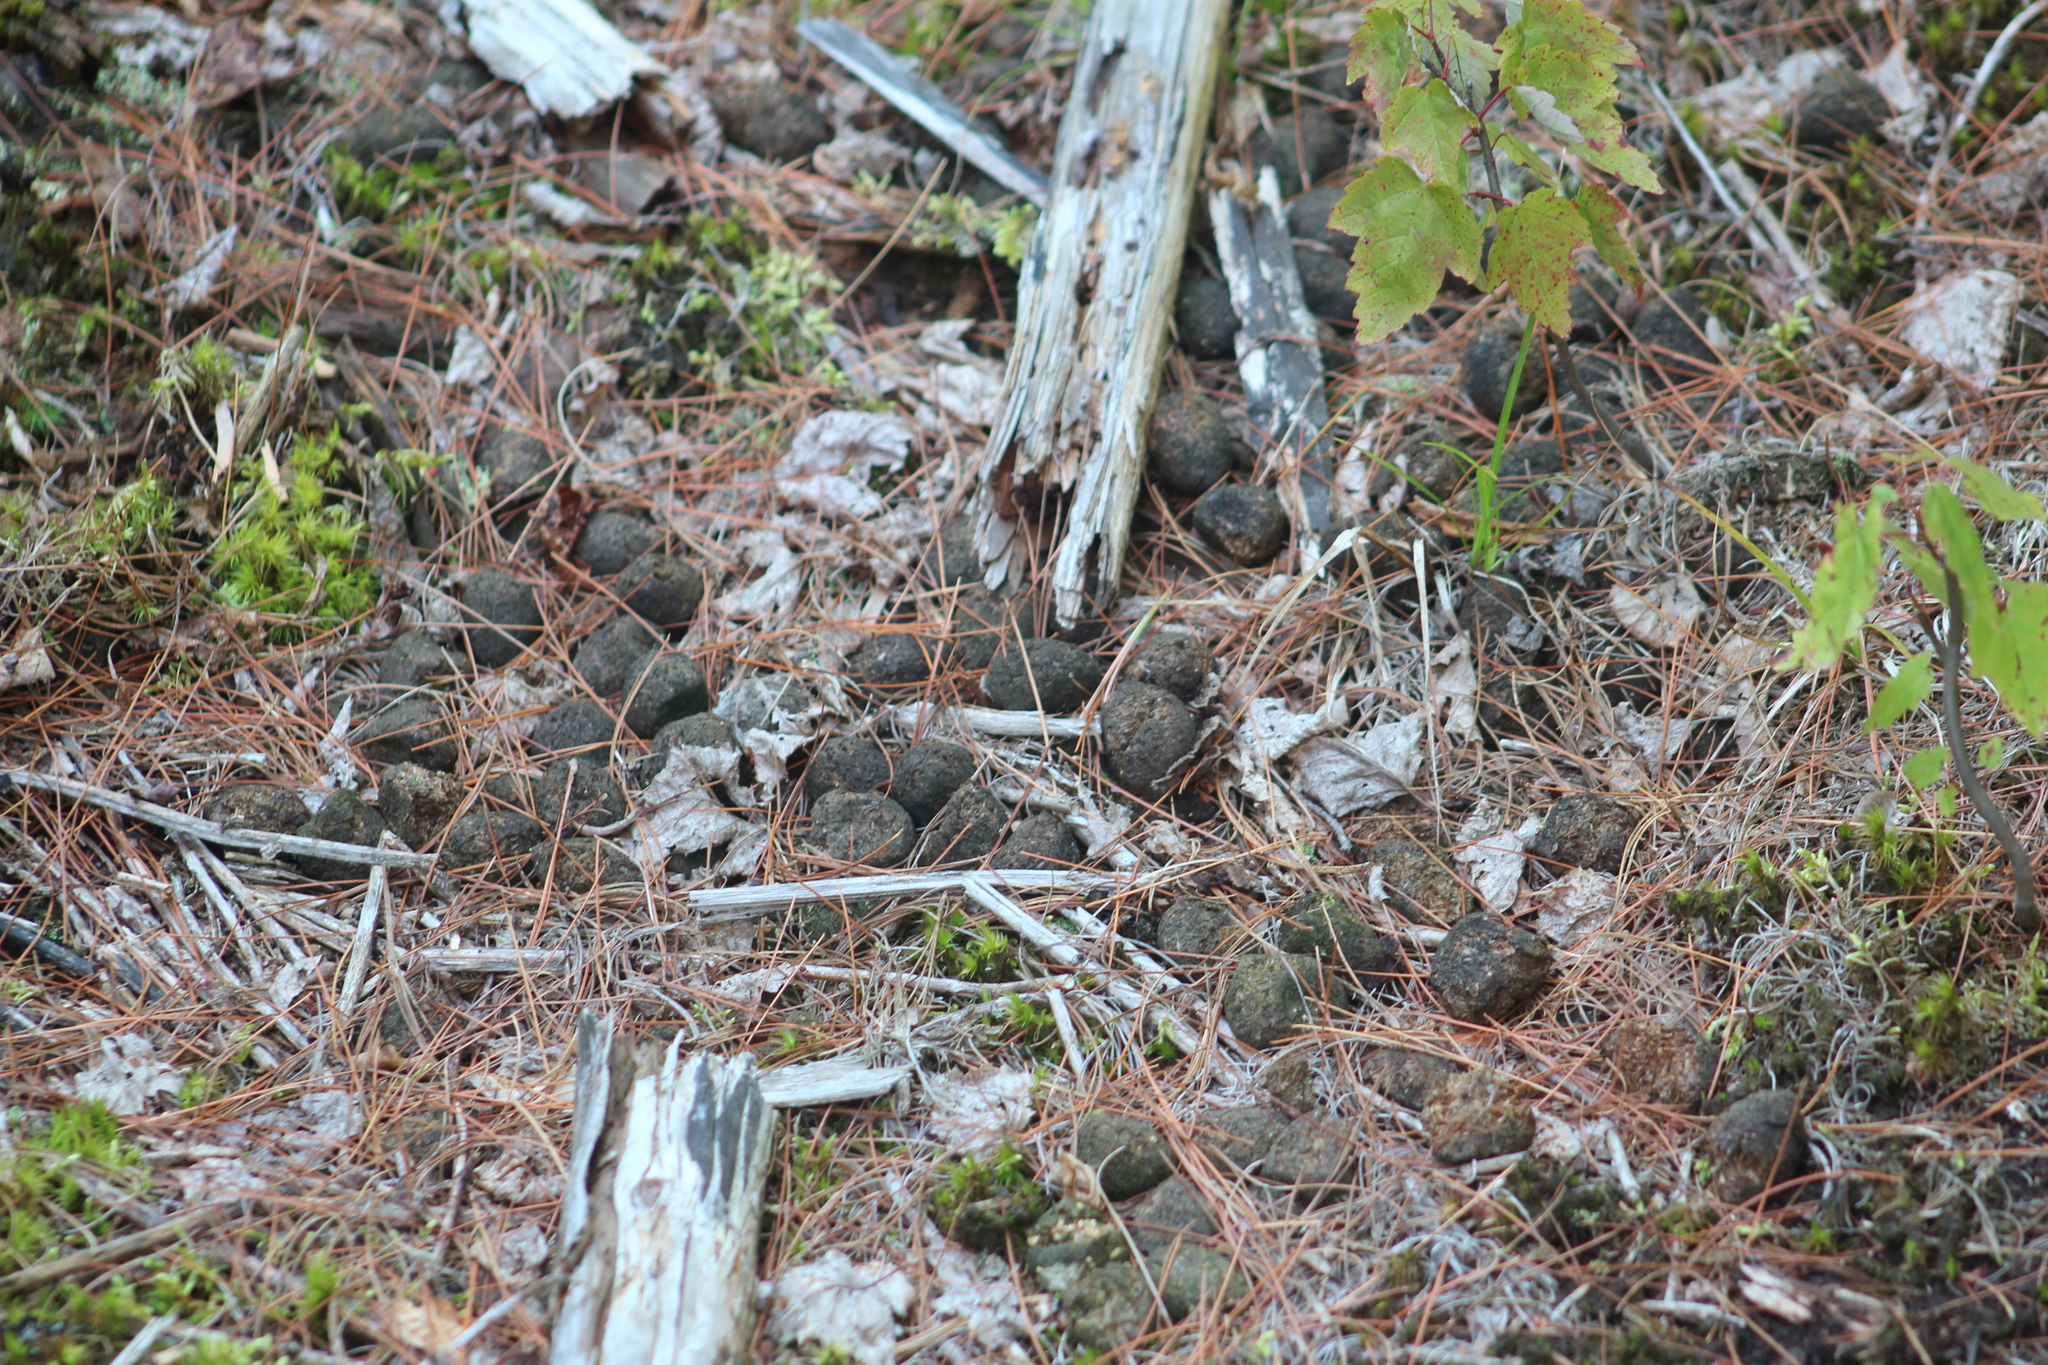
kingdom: Animalia
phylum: Chordata
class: Mammalia
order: Artiodactyla
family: Cervidae
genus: Alces
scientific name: Alces alces
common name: Moose
